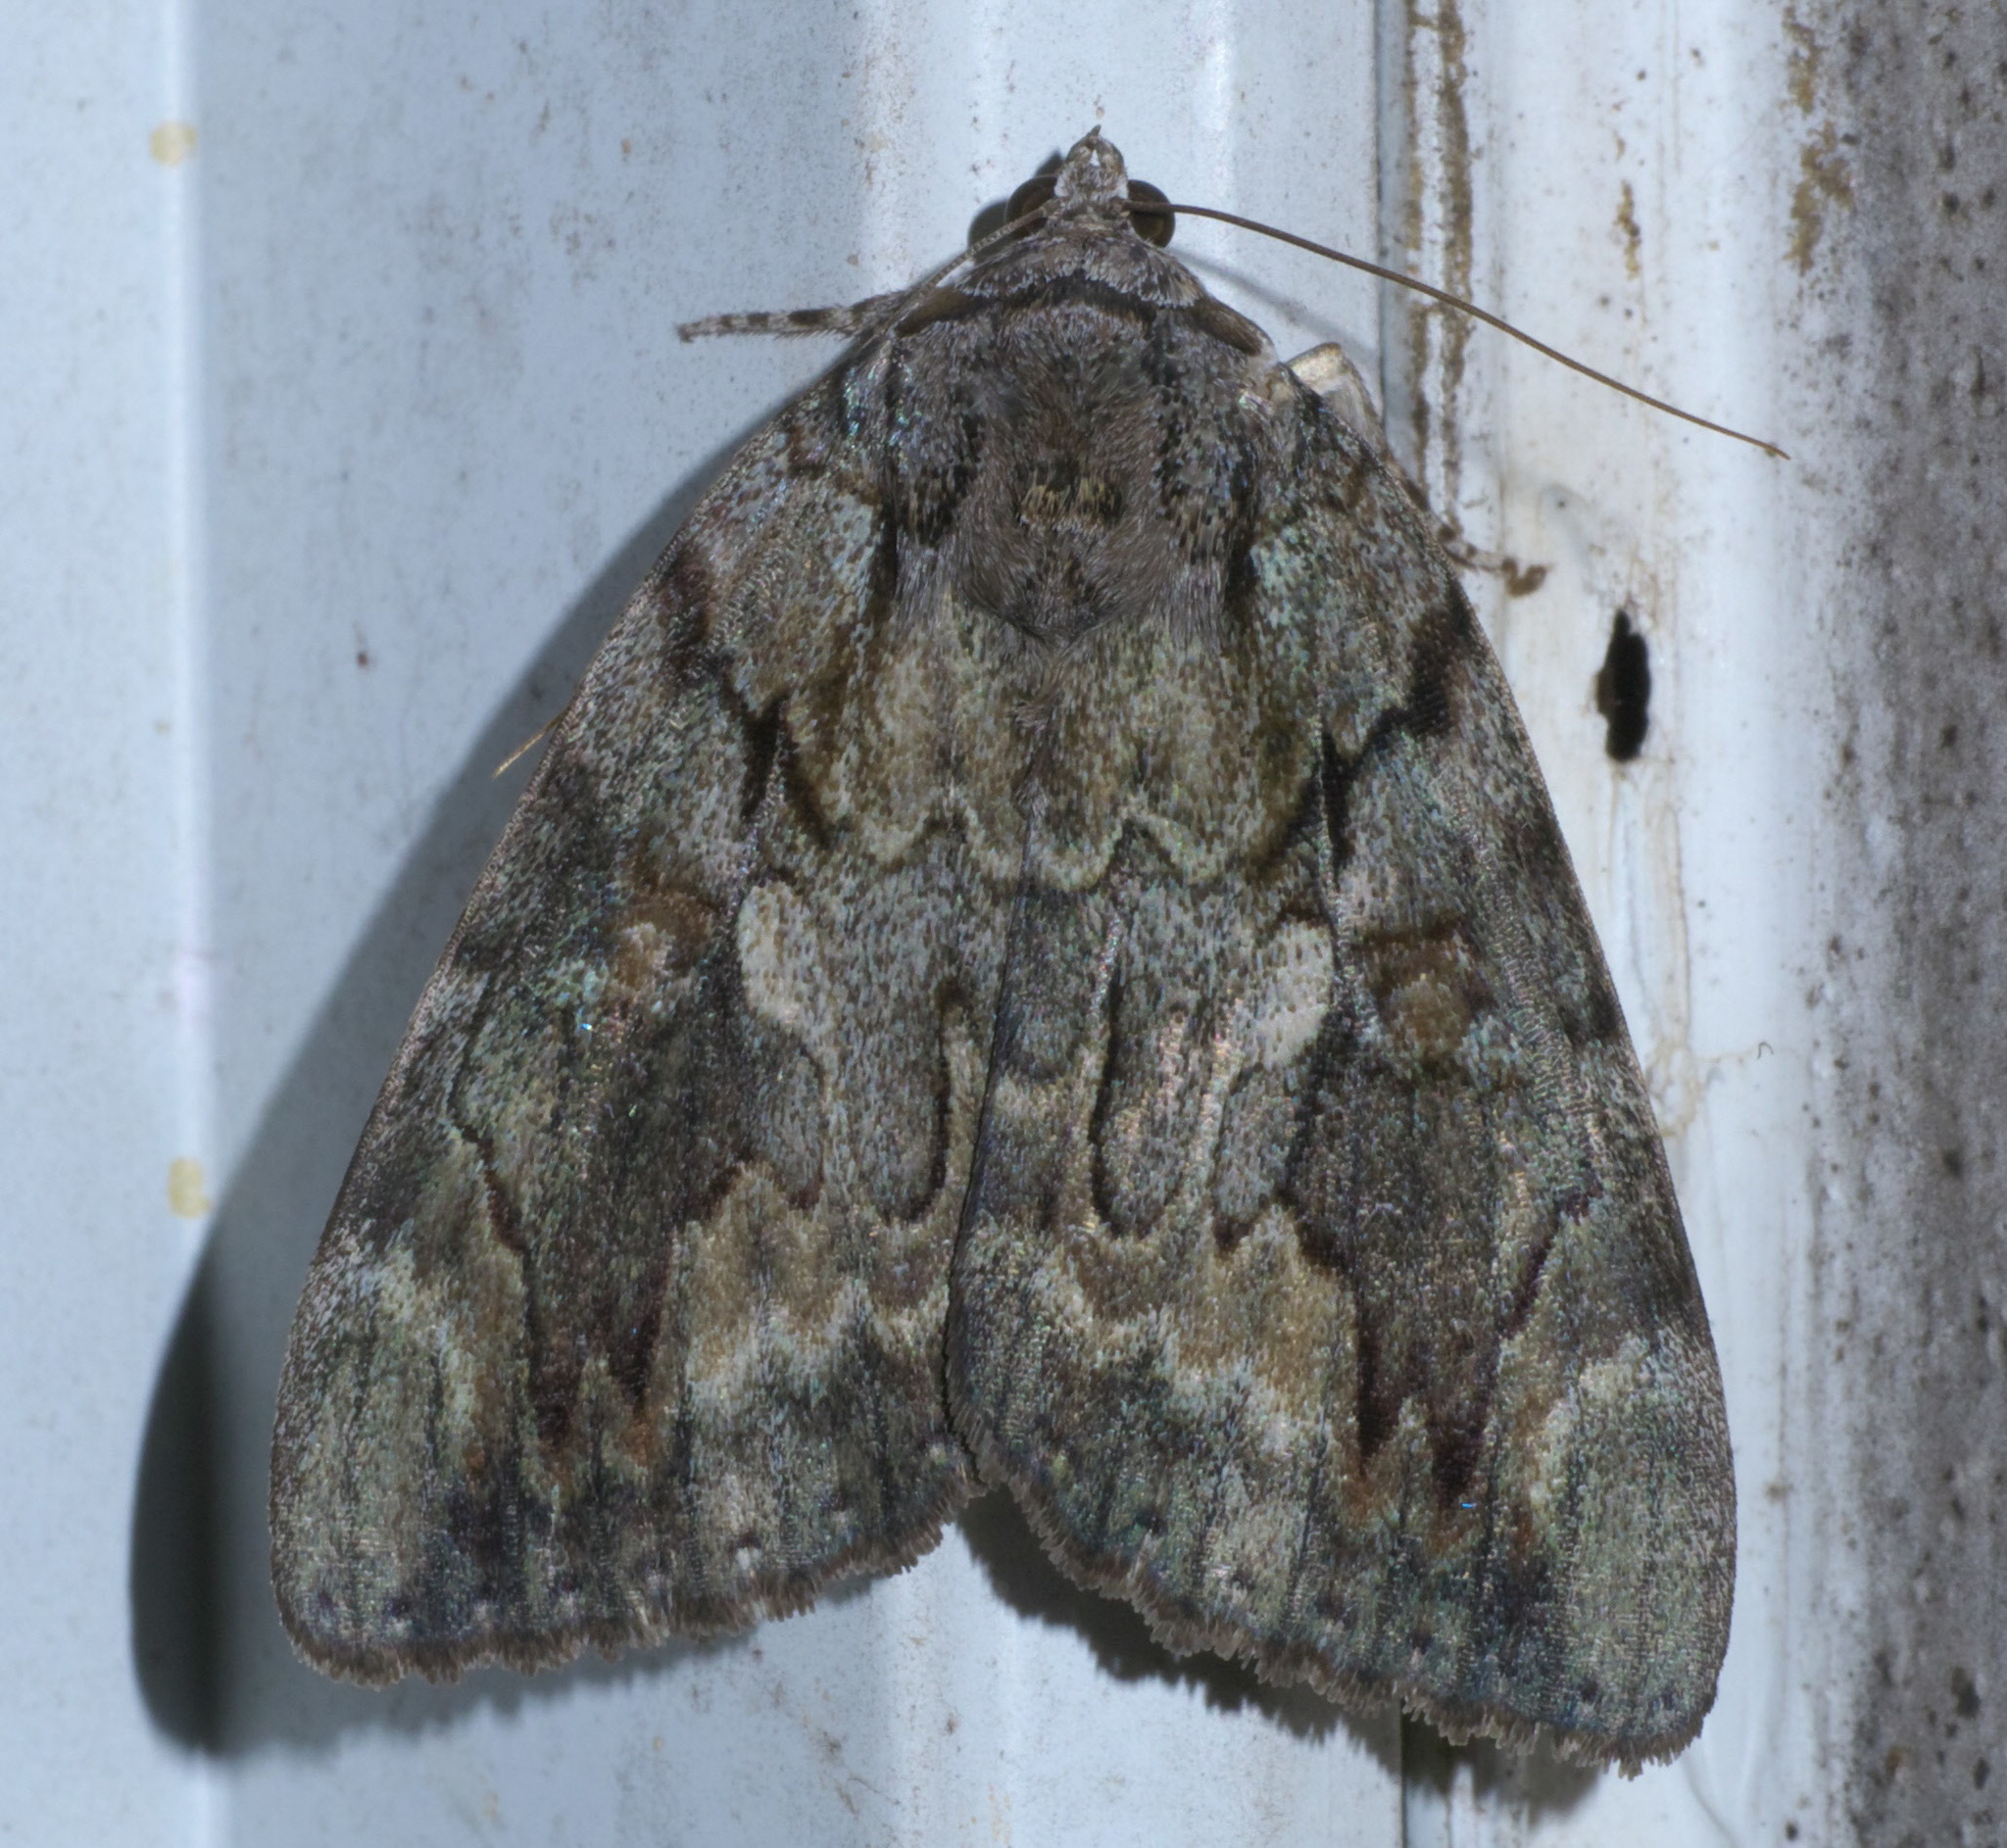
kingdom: Animalia
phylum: Arthropoda
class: Insecta
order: Lepidoptera
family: Erebidae
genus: Catocala
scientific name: Catocala agrippina
